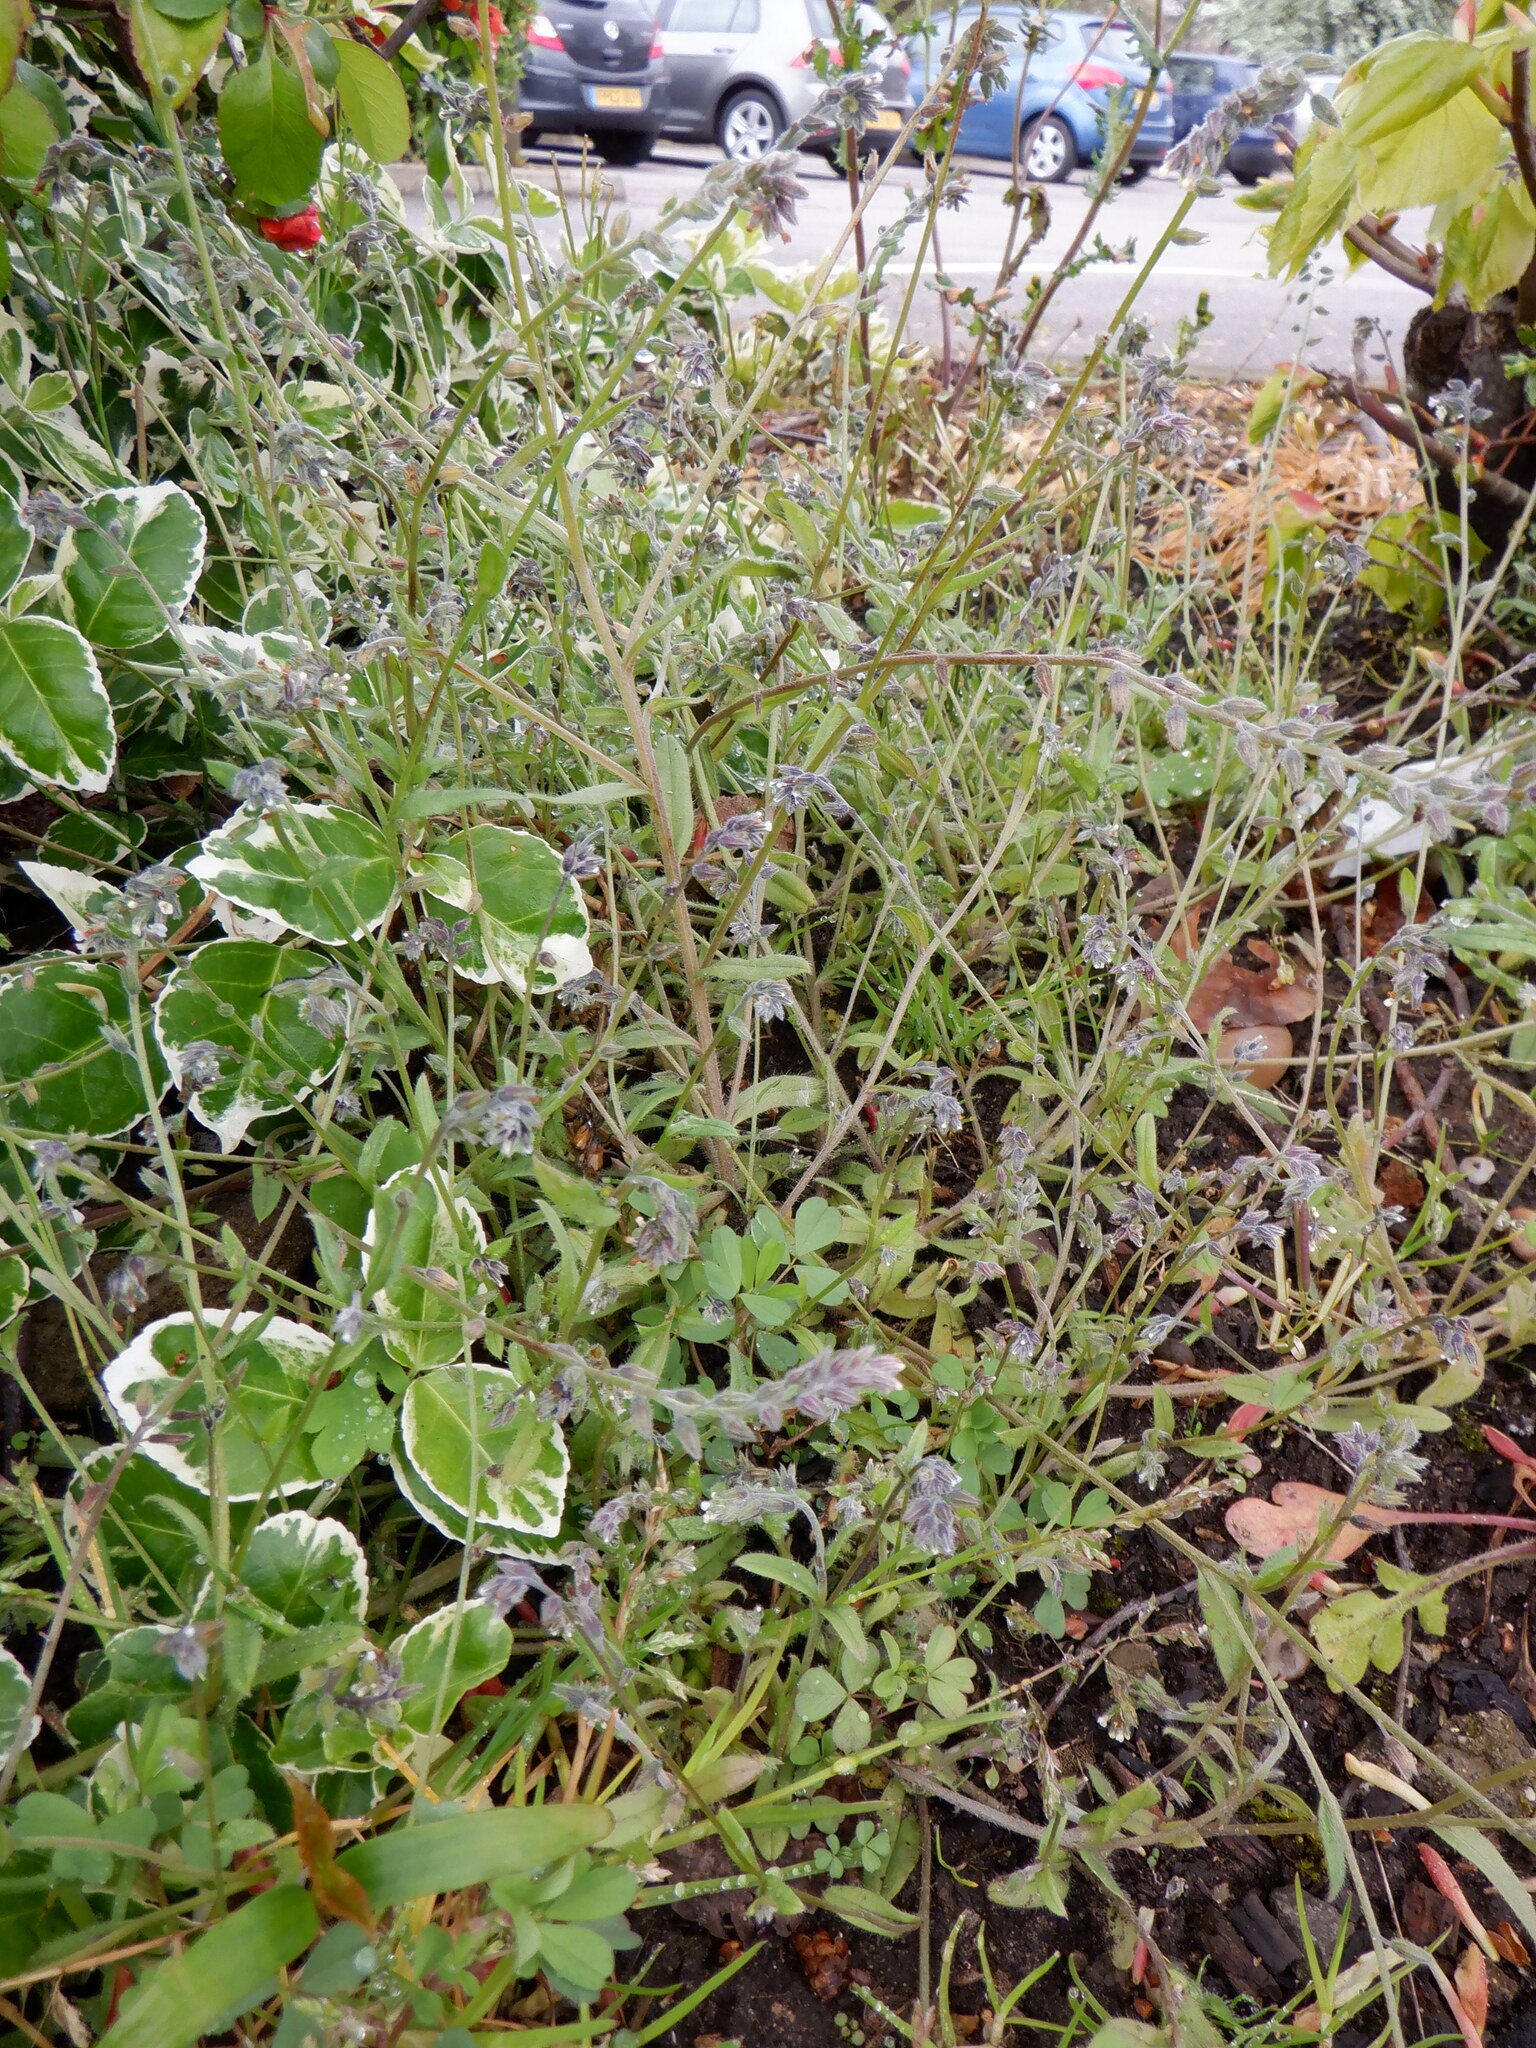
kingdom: Plantae
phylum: Tracheophyta
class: Magnoliopsida
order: Boraginales
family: Boraginaceae
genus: Myosotis
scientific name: Myosotis discolor
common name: Changing forget-me-not
